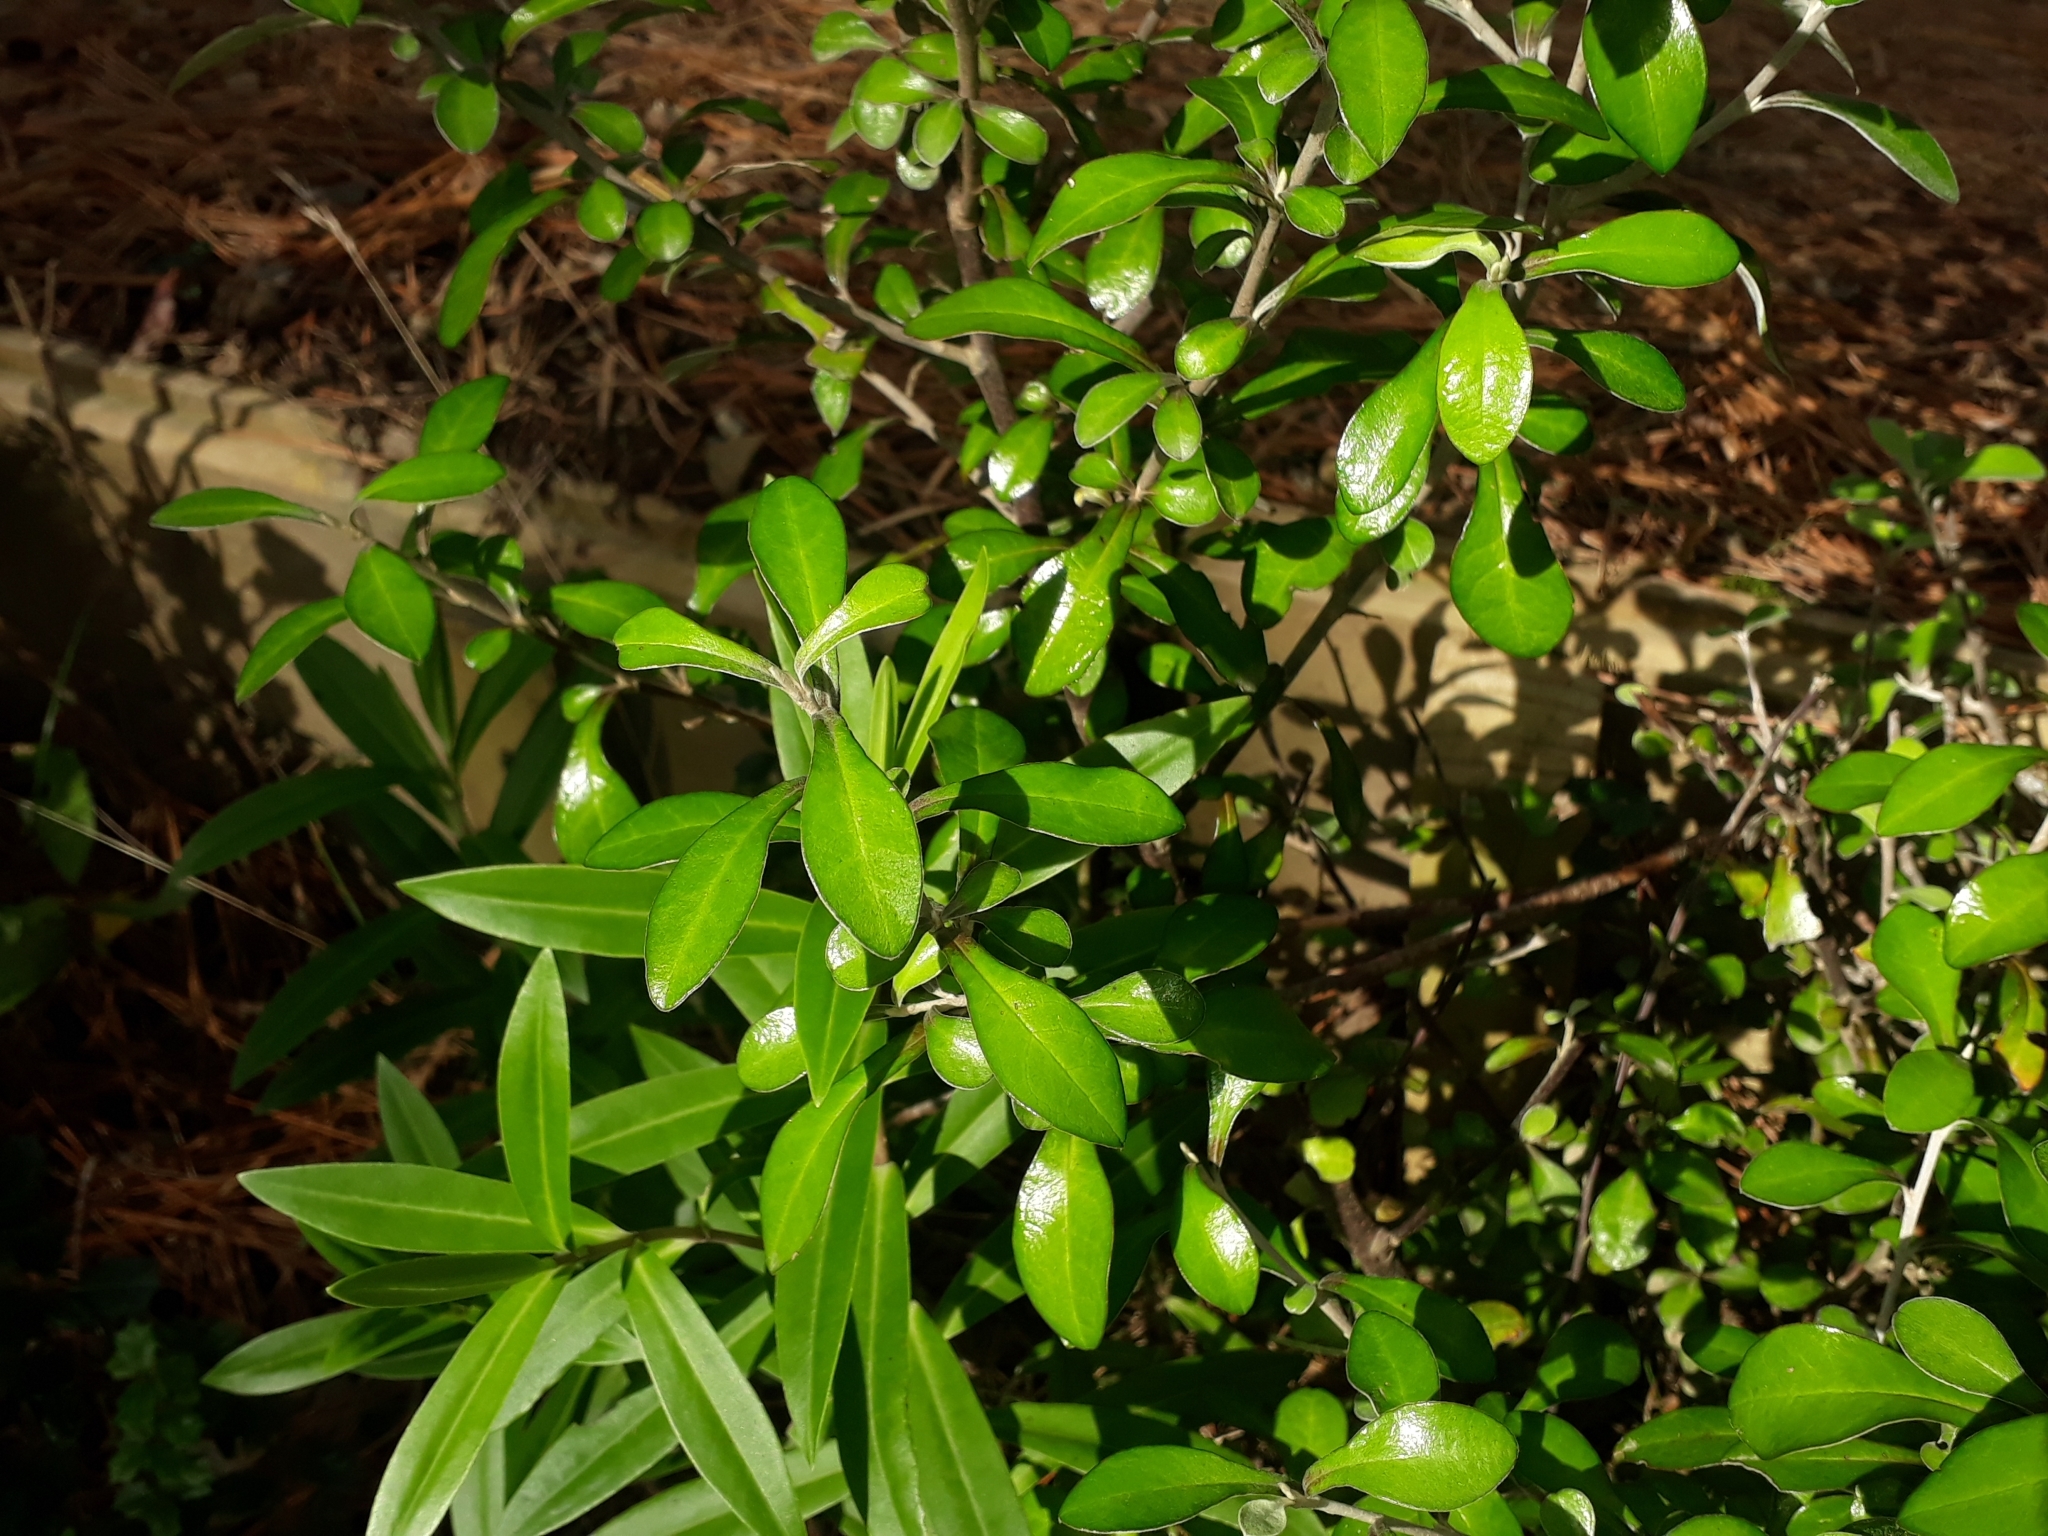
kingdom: Plantae
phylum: Tracheophyta
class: Magnoliopsida
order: Asterales
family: Argophyllaceae
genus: Corokia
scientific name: Corokia virgata
